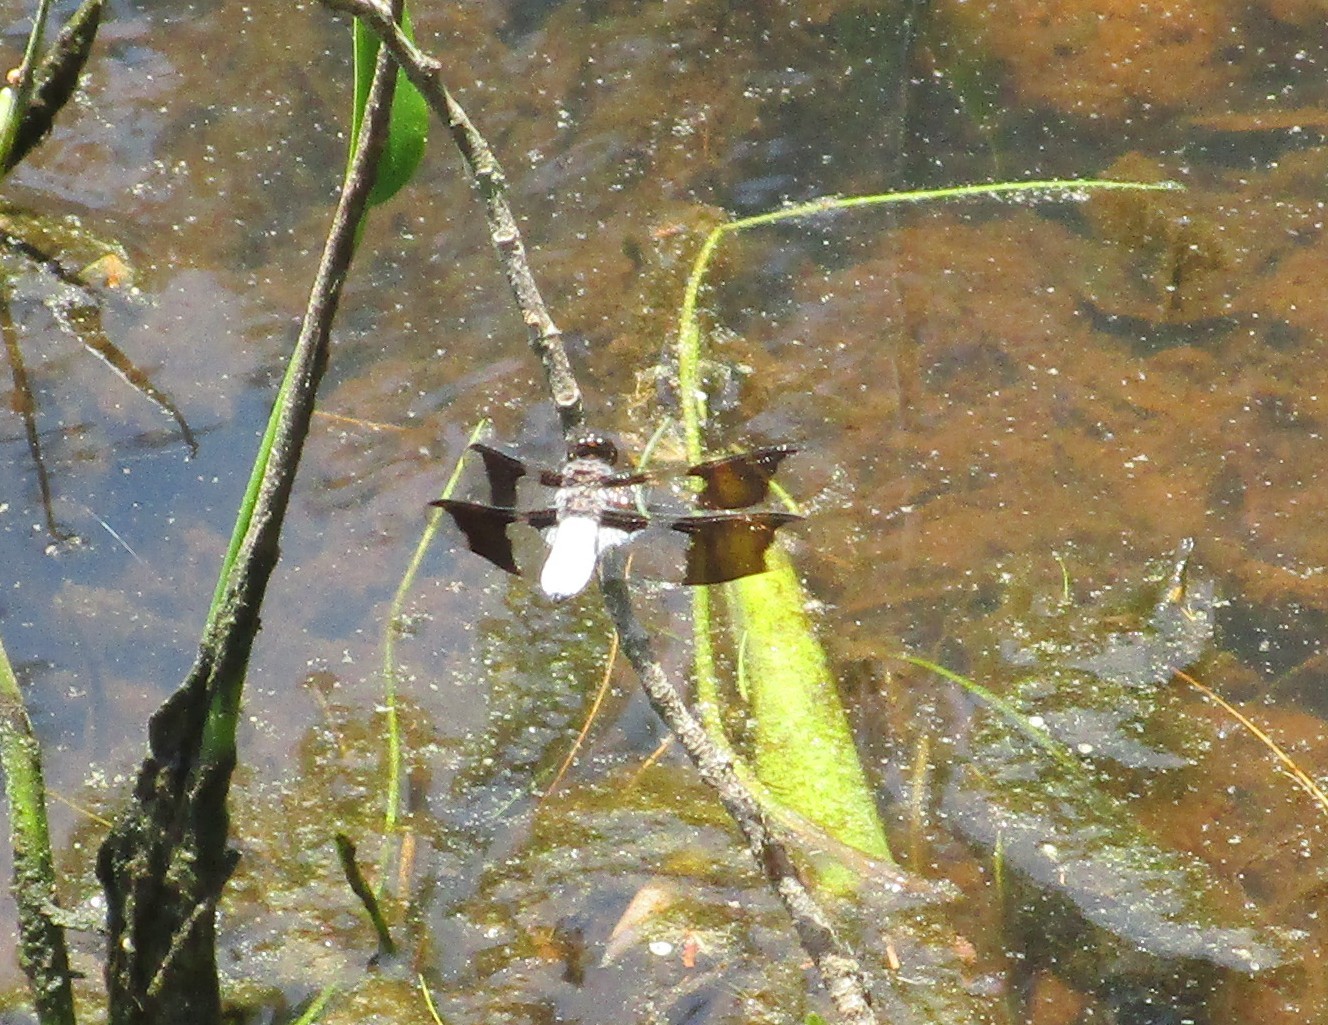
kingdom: Animalia
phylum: Arthropoda
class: Insecta
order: Odonata
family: Libellulidae
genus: Plathemis
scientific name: Plathemis lydia
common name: Common whitetail
